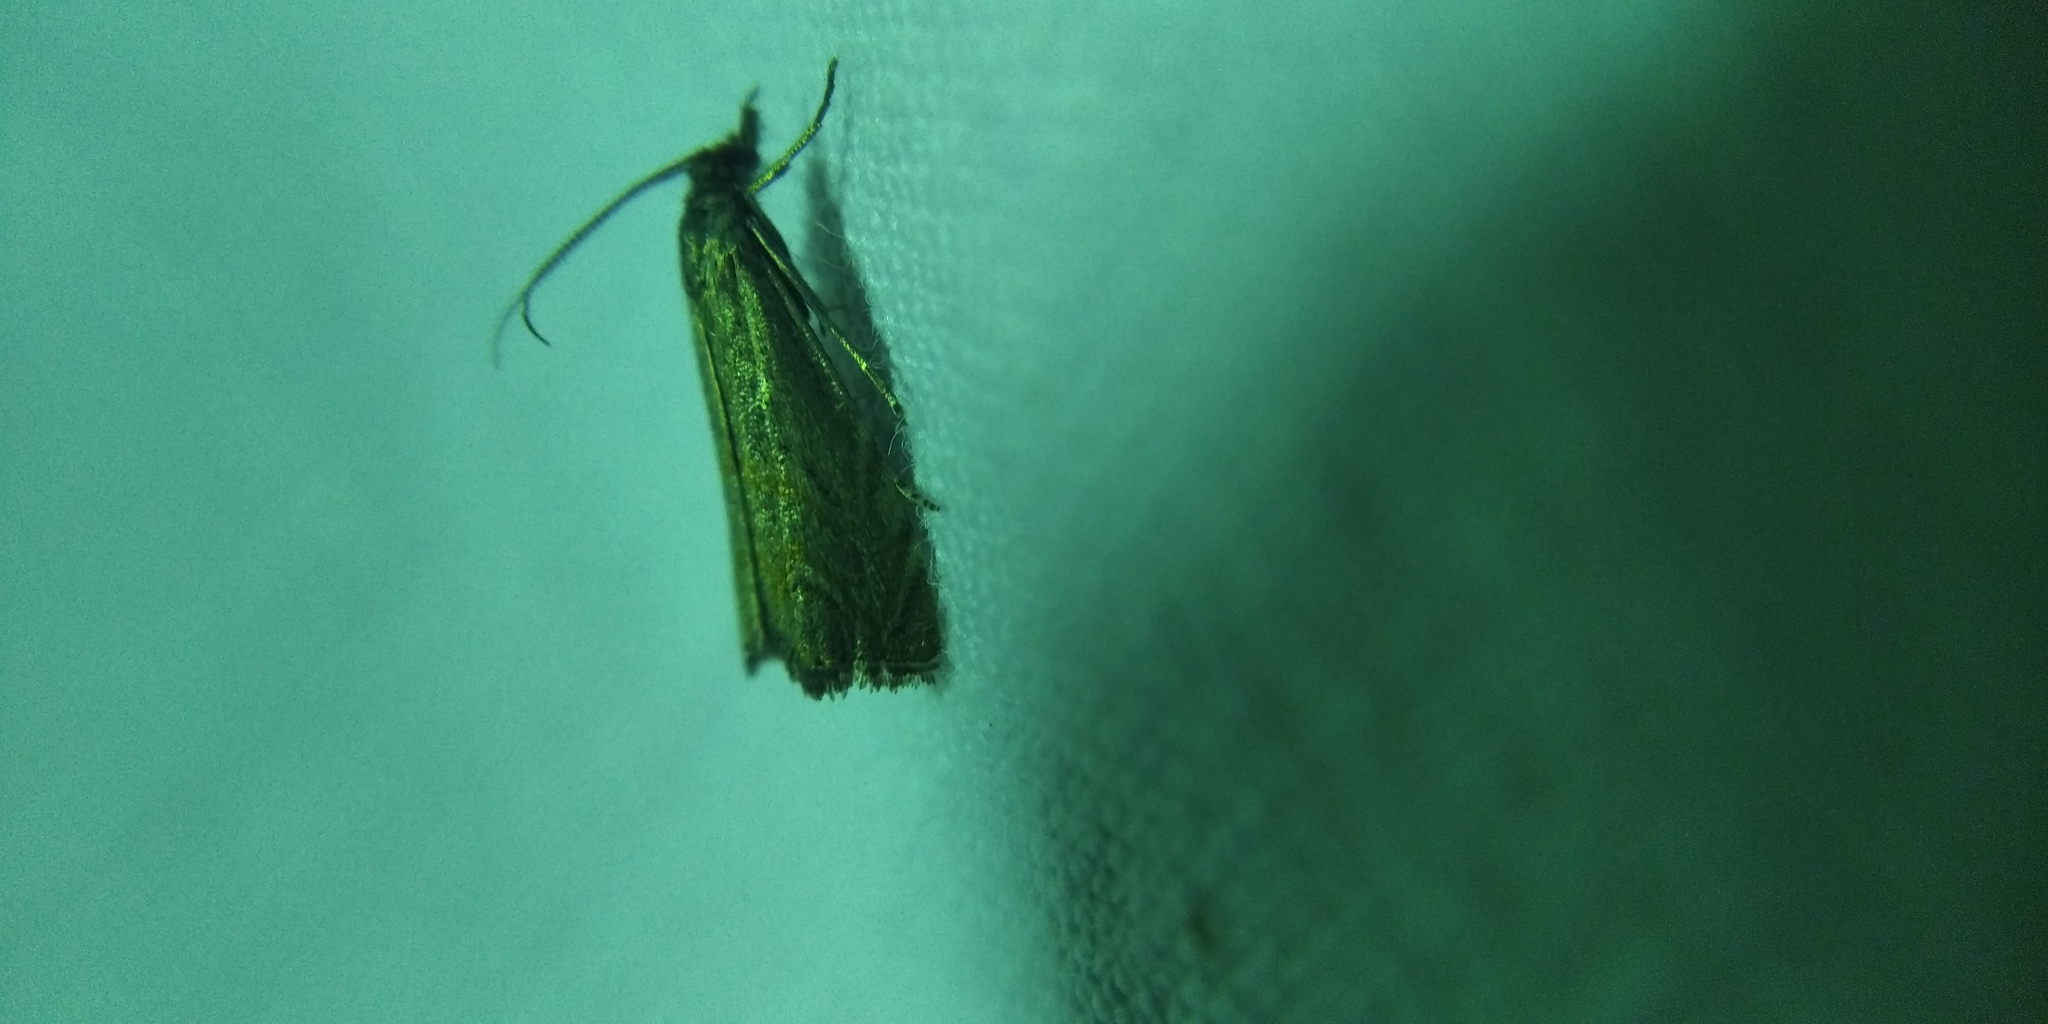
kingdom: Animalia
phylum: Arthropoda
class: Insecta
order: Lepidoptera
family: Crambidae
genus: Platytes
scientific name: Platytes cerusella
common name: Little grass-veneer
